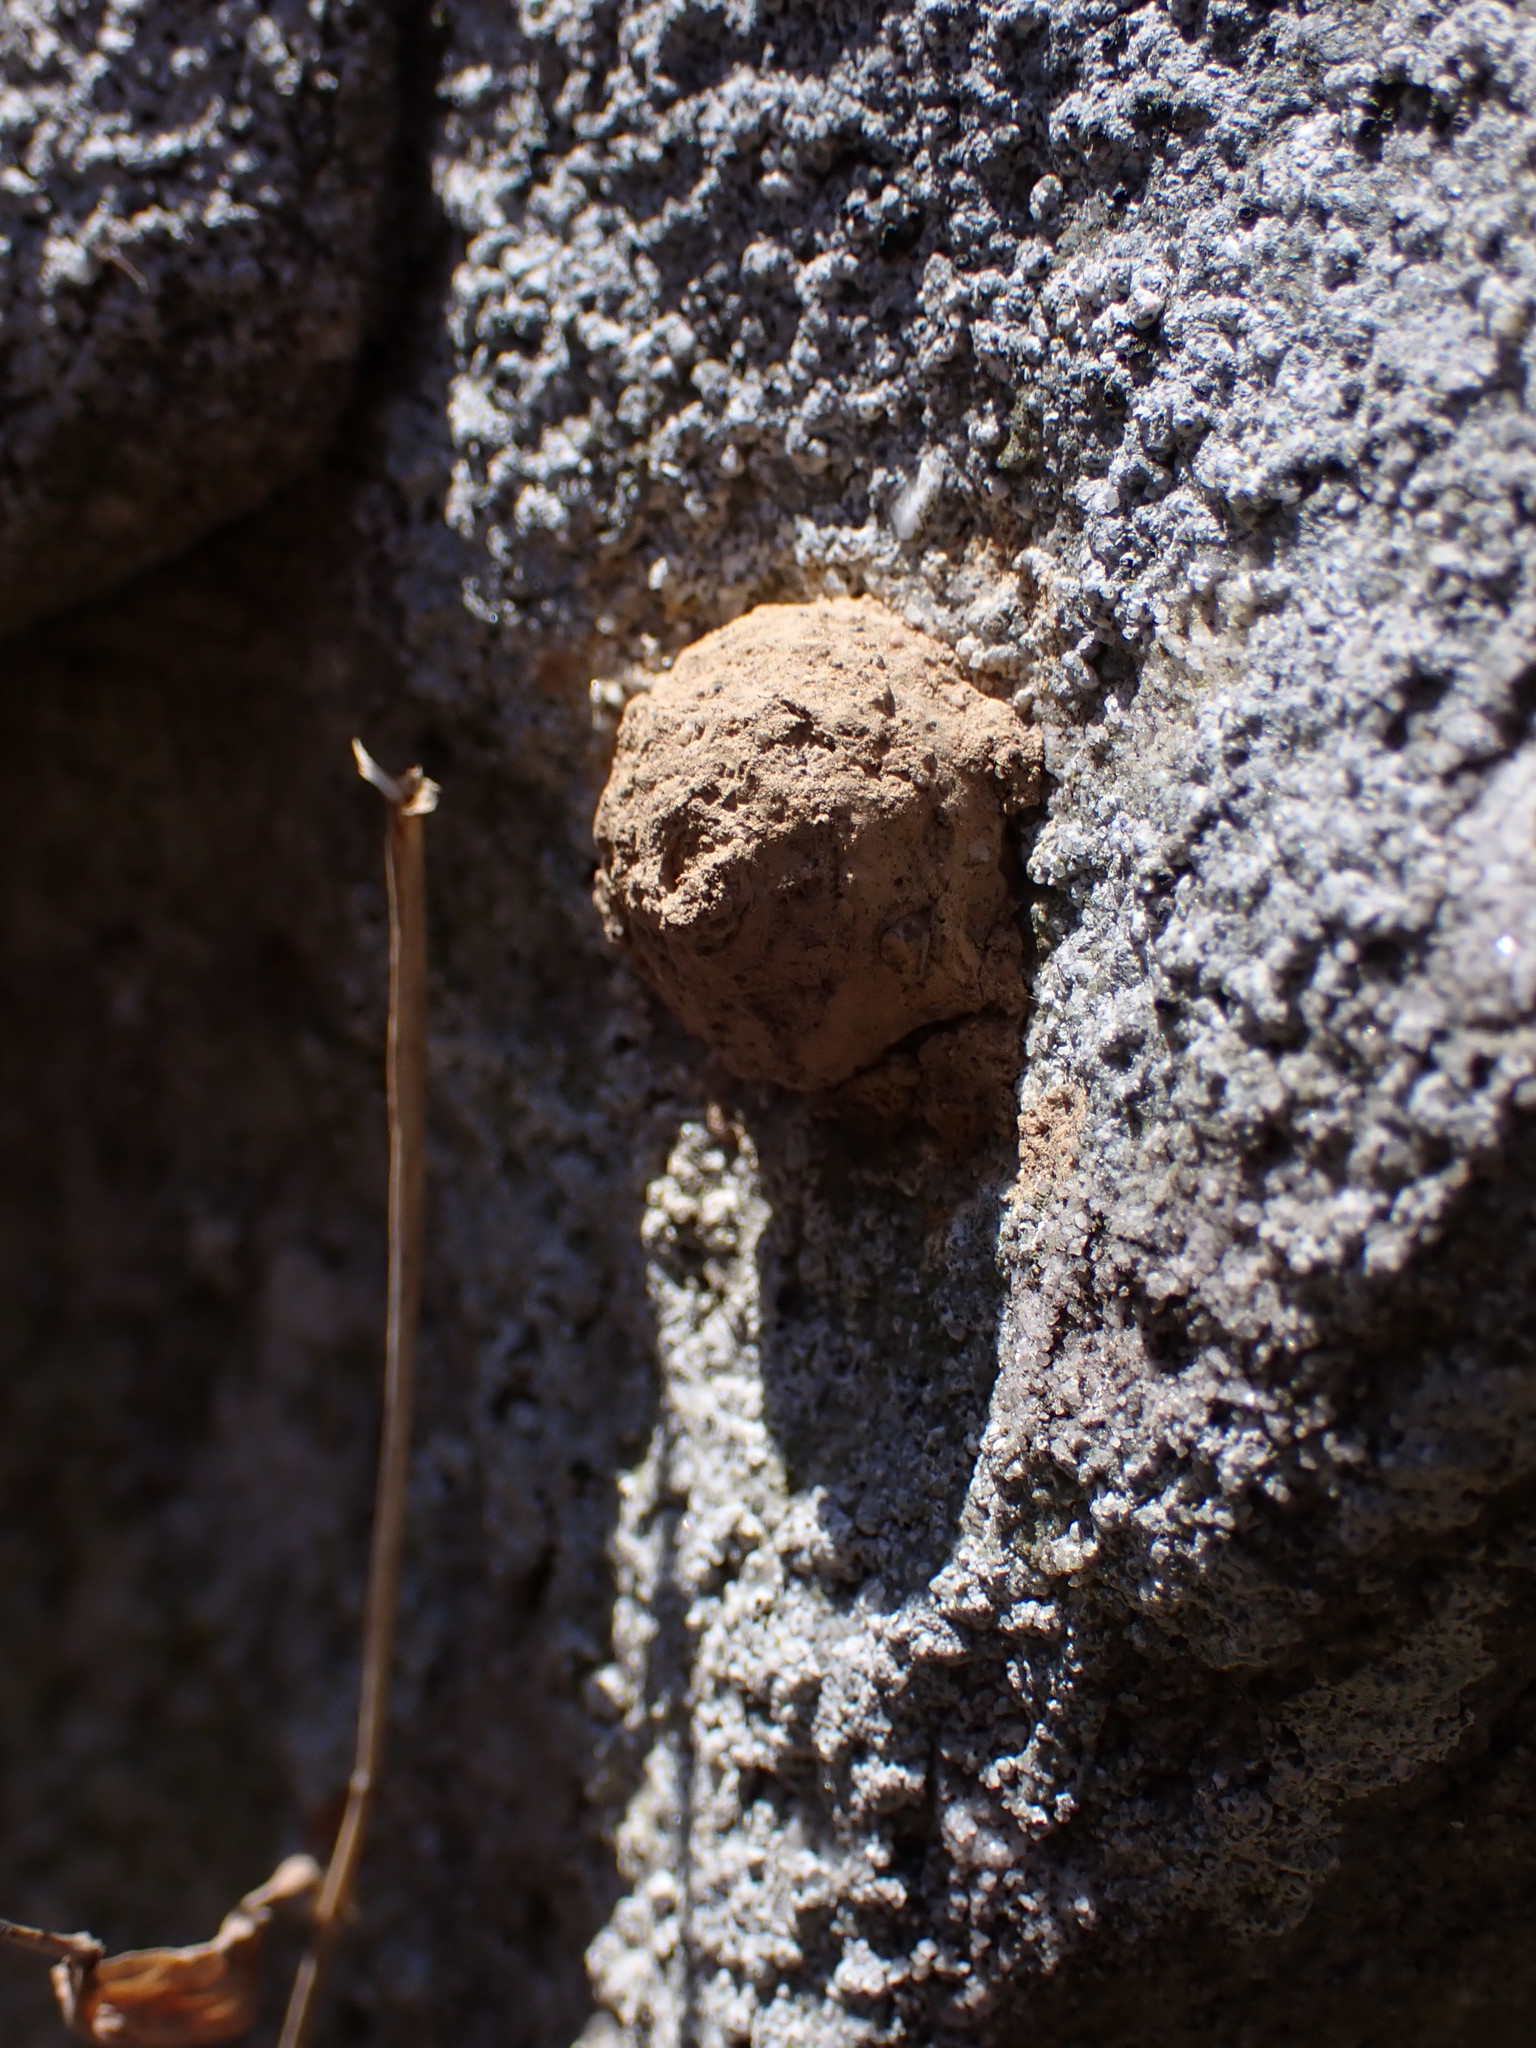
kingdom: Animalia
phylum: Arthropoda
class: Insecta
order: Hymenoptera
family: Vespidae
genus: Eumenes
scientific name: Eumenes
